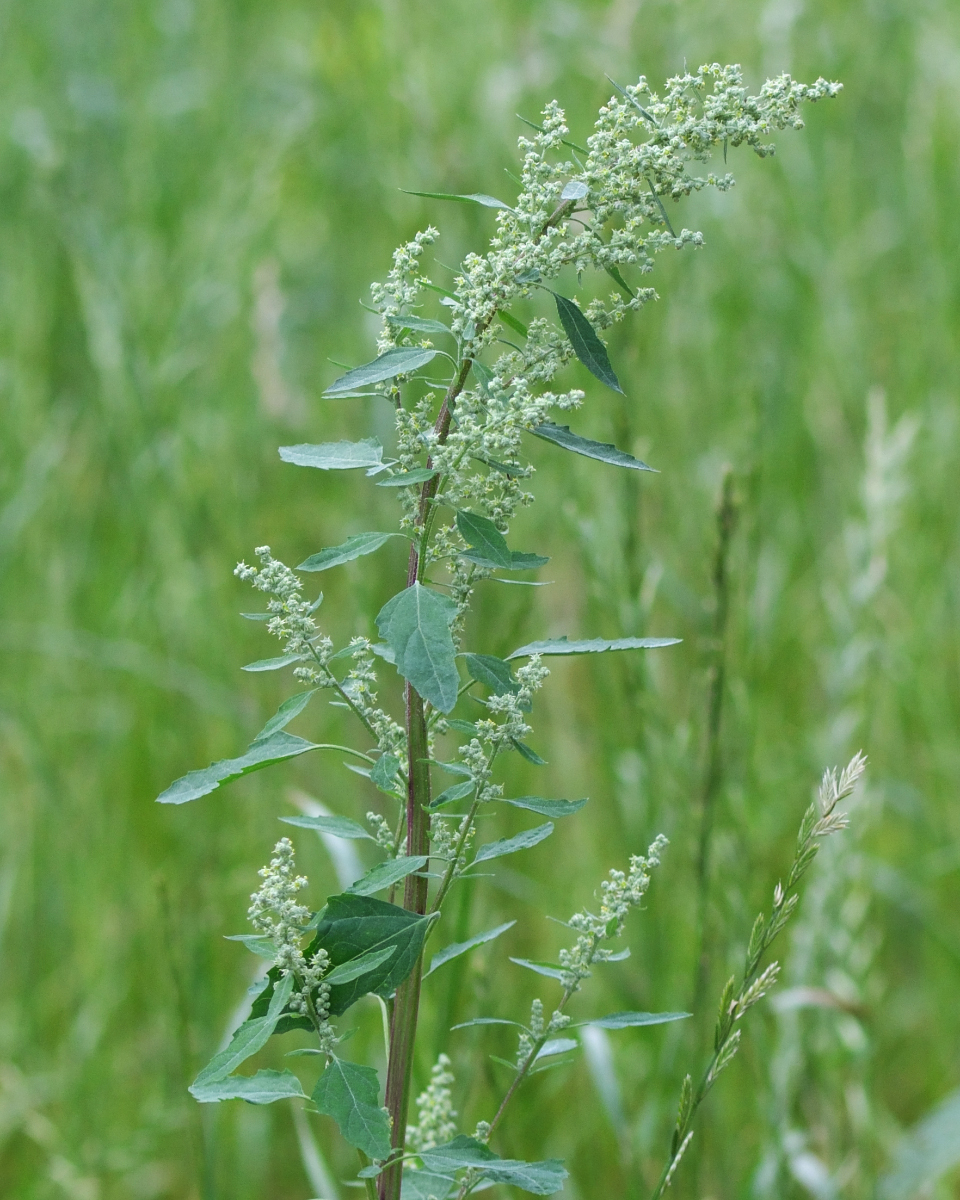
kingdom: Plantae
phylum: Tracheophyta
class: Magnoliopsida
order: Caryophyllales
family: Amaranthaceae
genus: Chenopodium
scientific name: Chenopodium album
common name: Fat-hen
